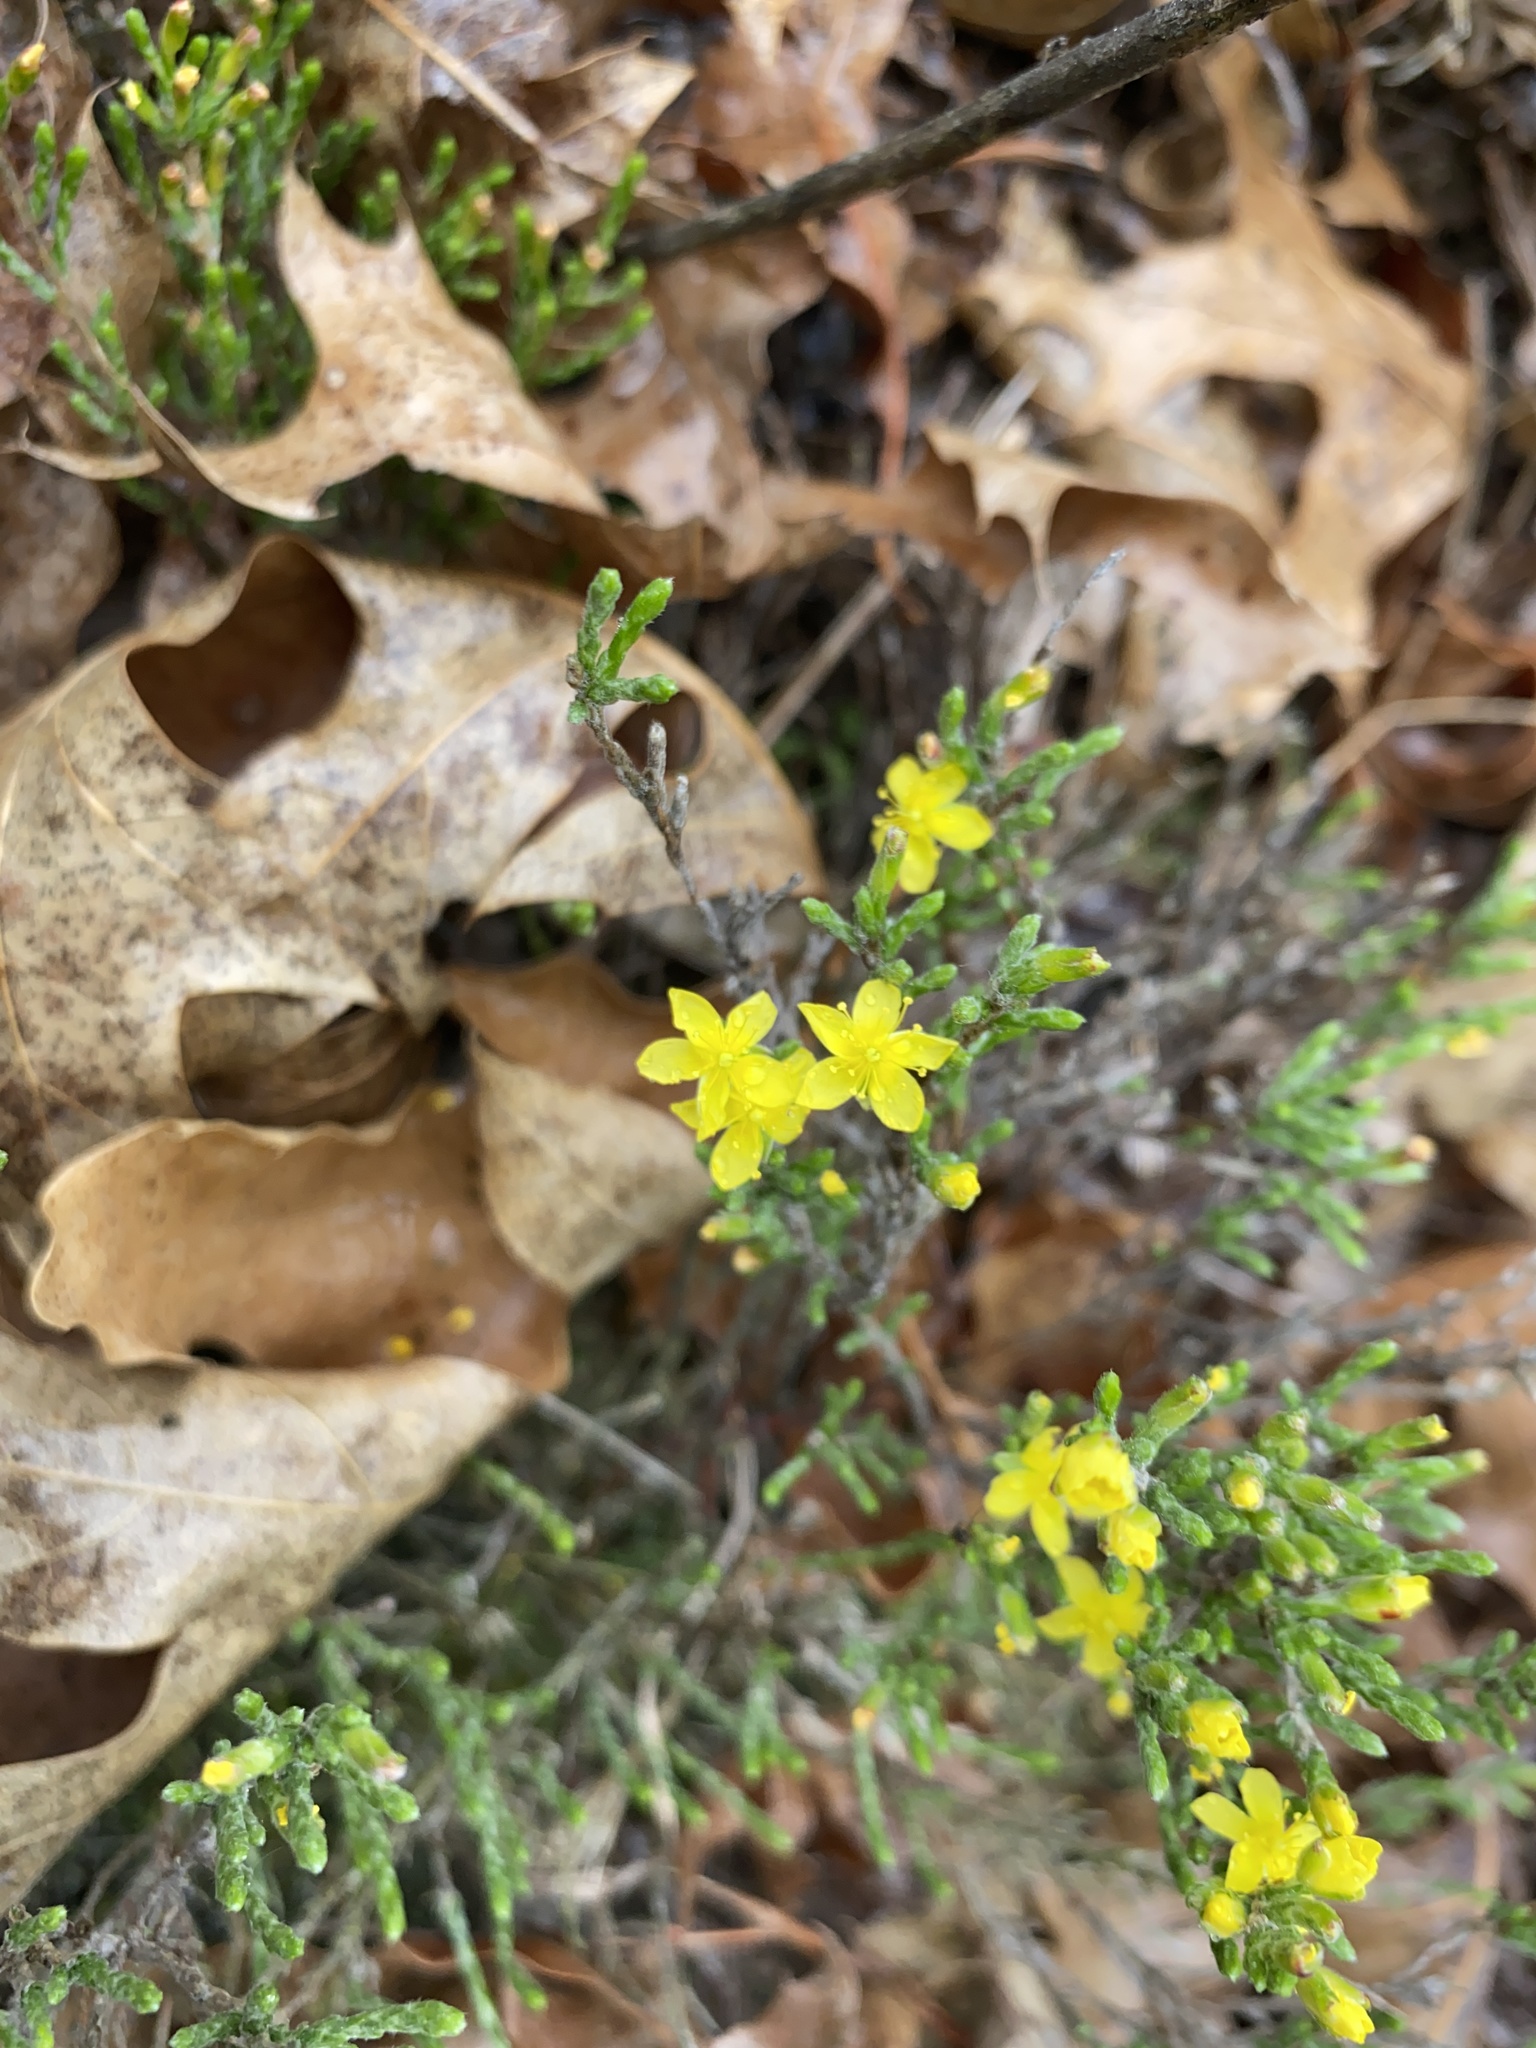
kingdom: Plantae
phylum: Tracheophyta
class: Magnoliopsida
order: Malvales
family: Cistaceae
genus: Hudsonia
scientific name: Hudsonia tomentosa
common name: Beach-heath
